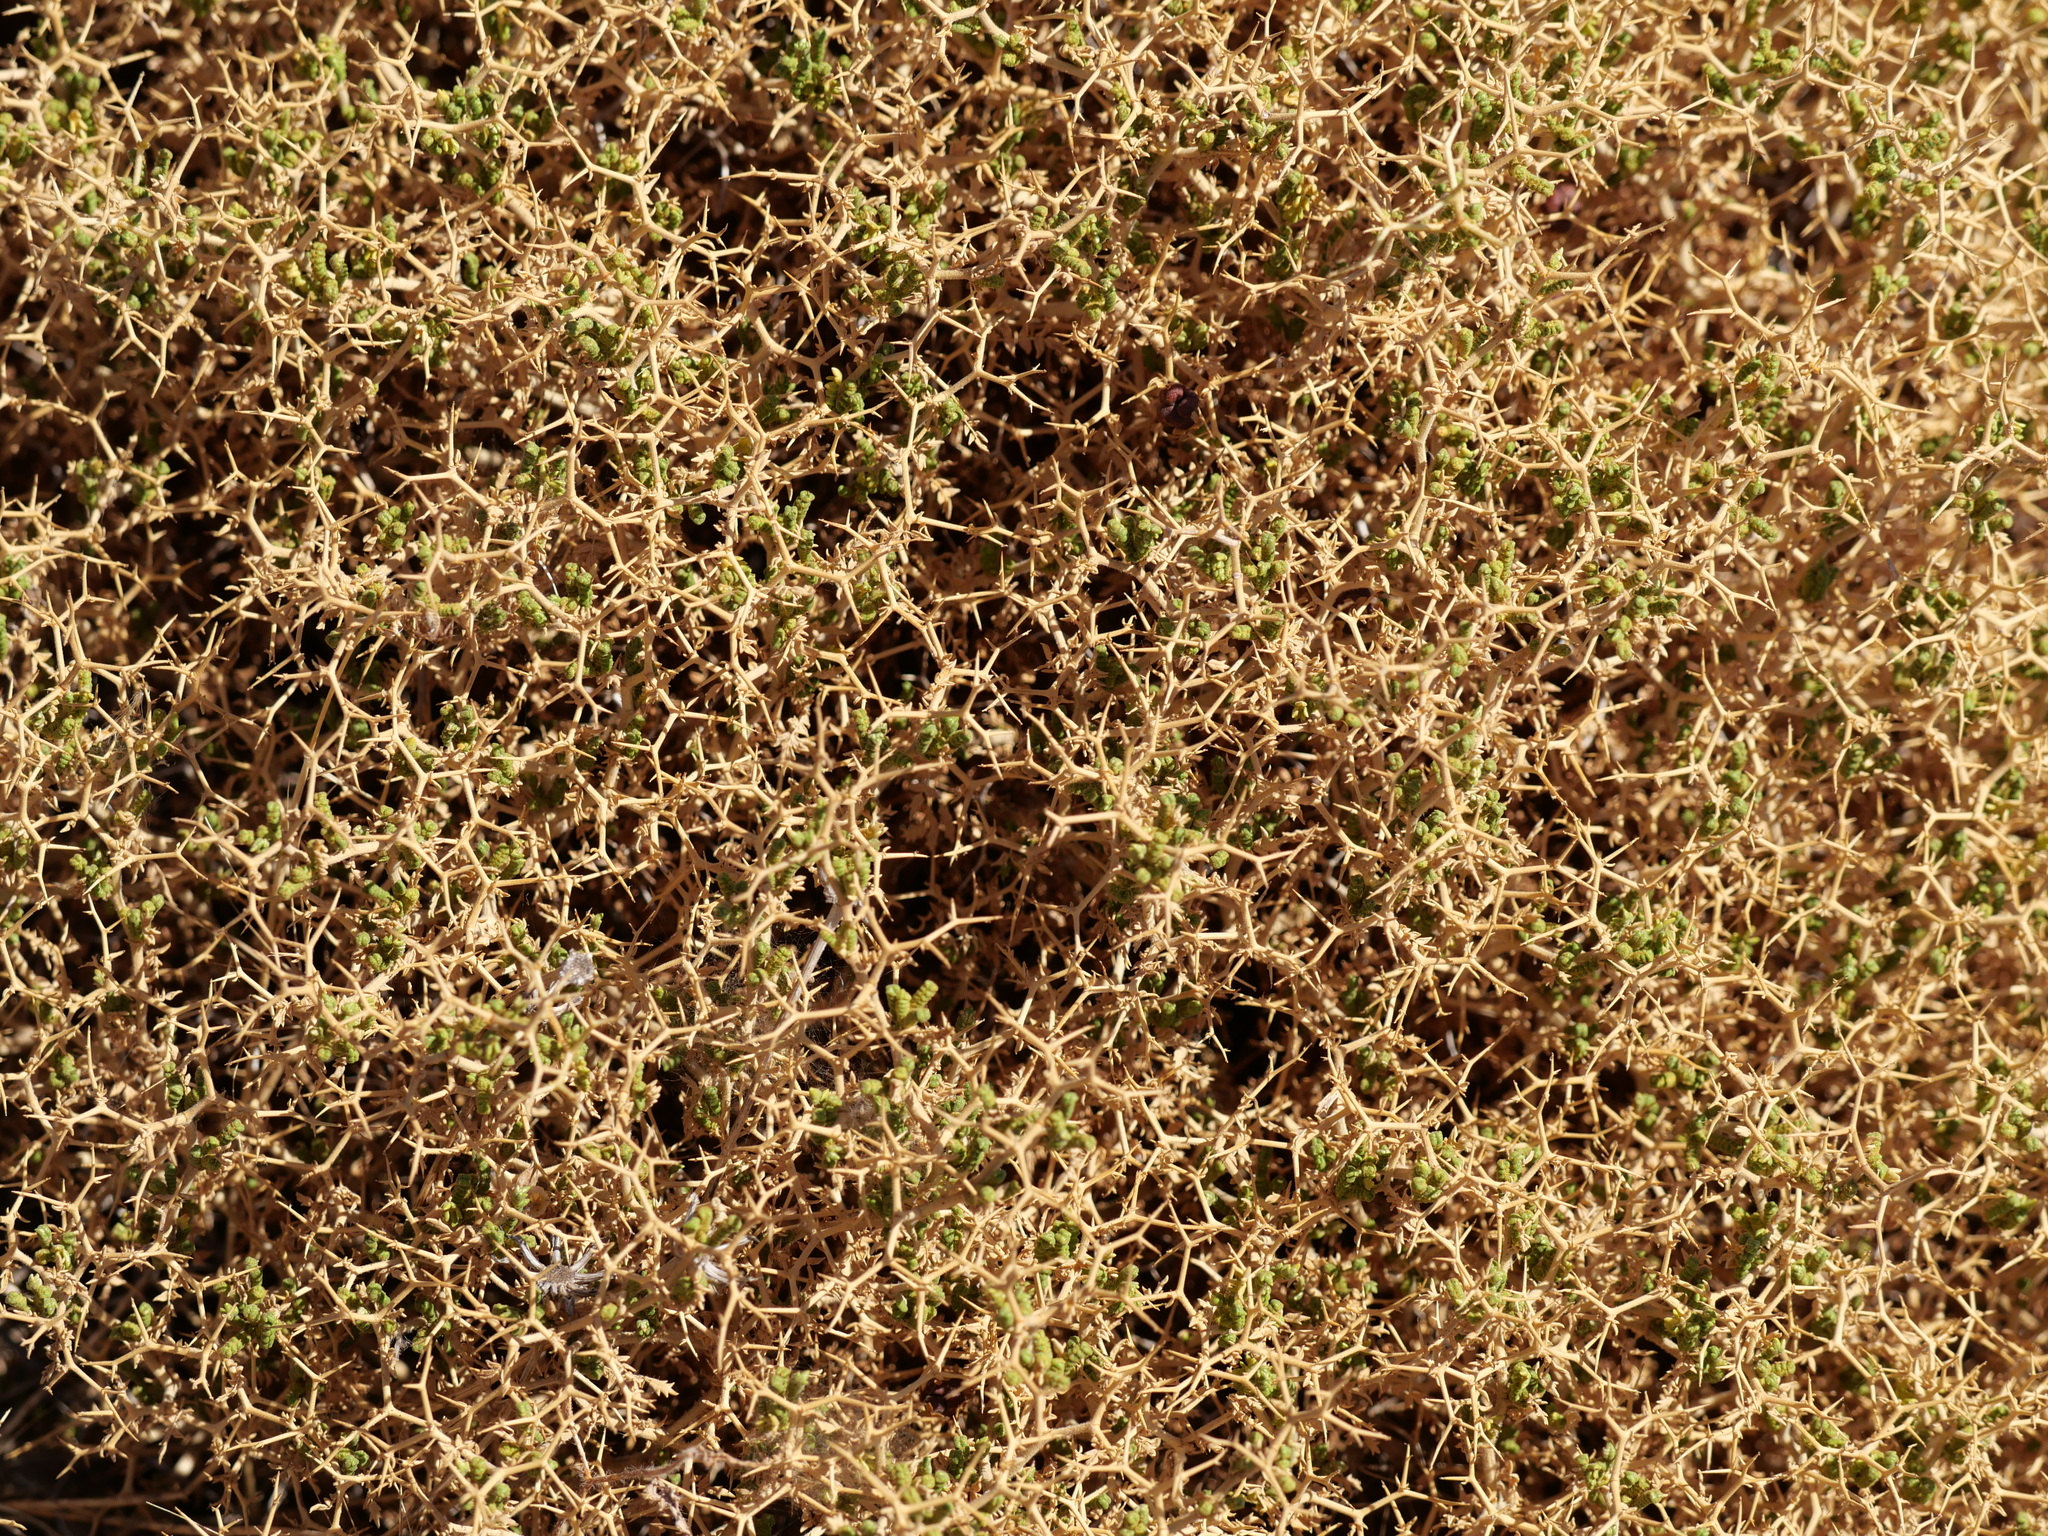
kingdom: Plantae
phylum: Tracheophyta
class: Magnoliopsida
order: Rosales
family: Rosaceae
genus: Sarcopoterium
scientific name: Sarcopoterium spinosum
